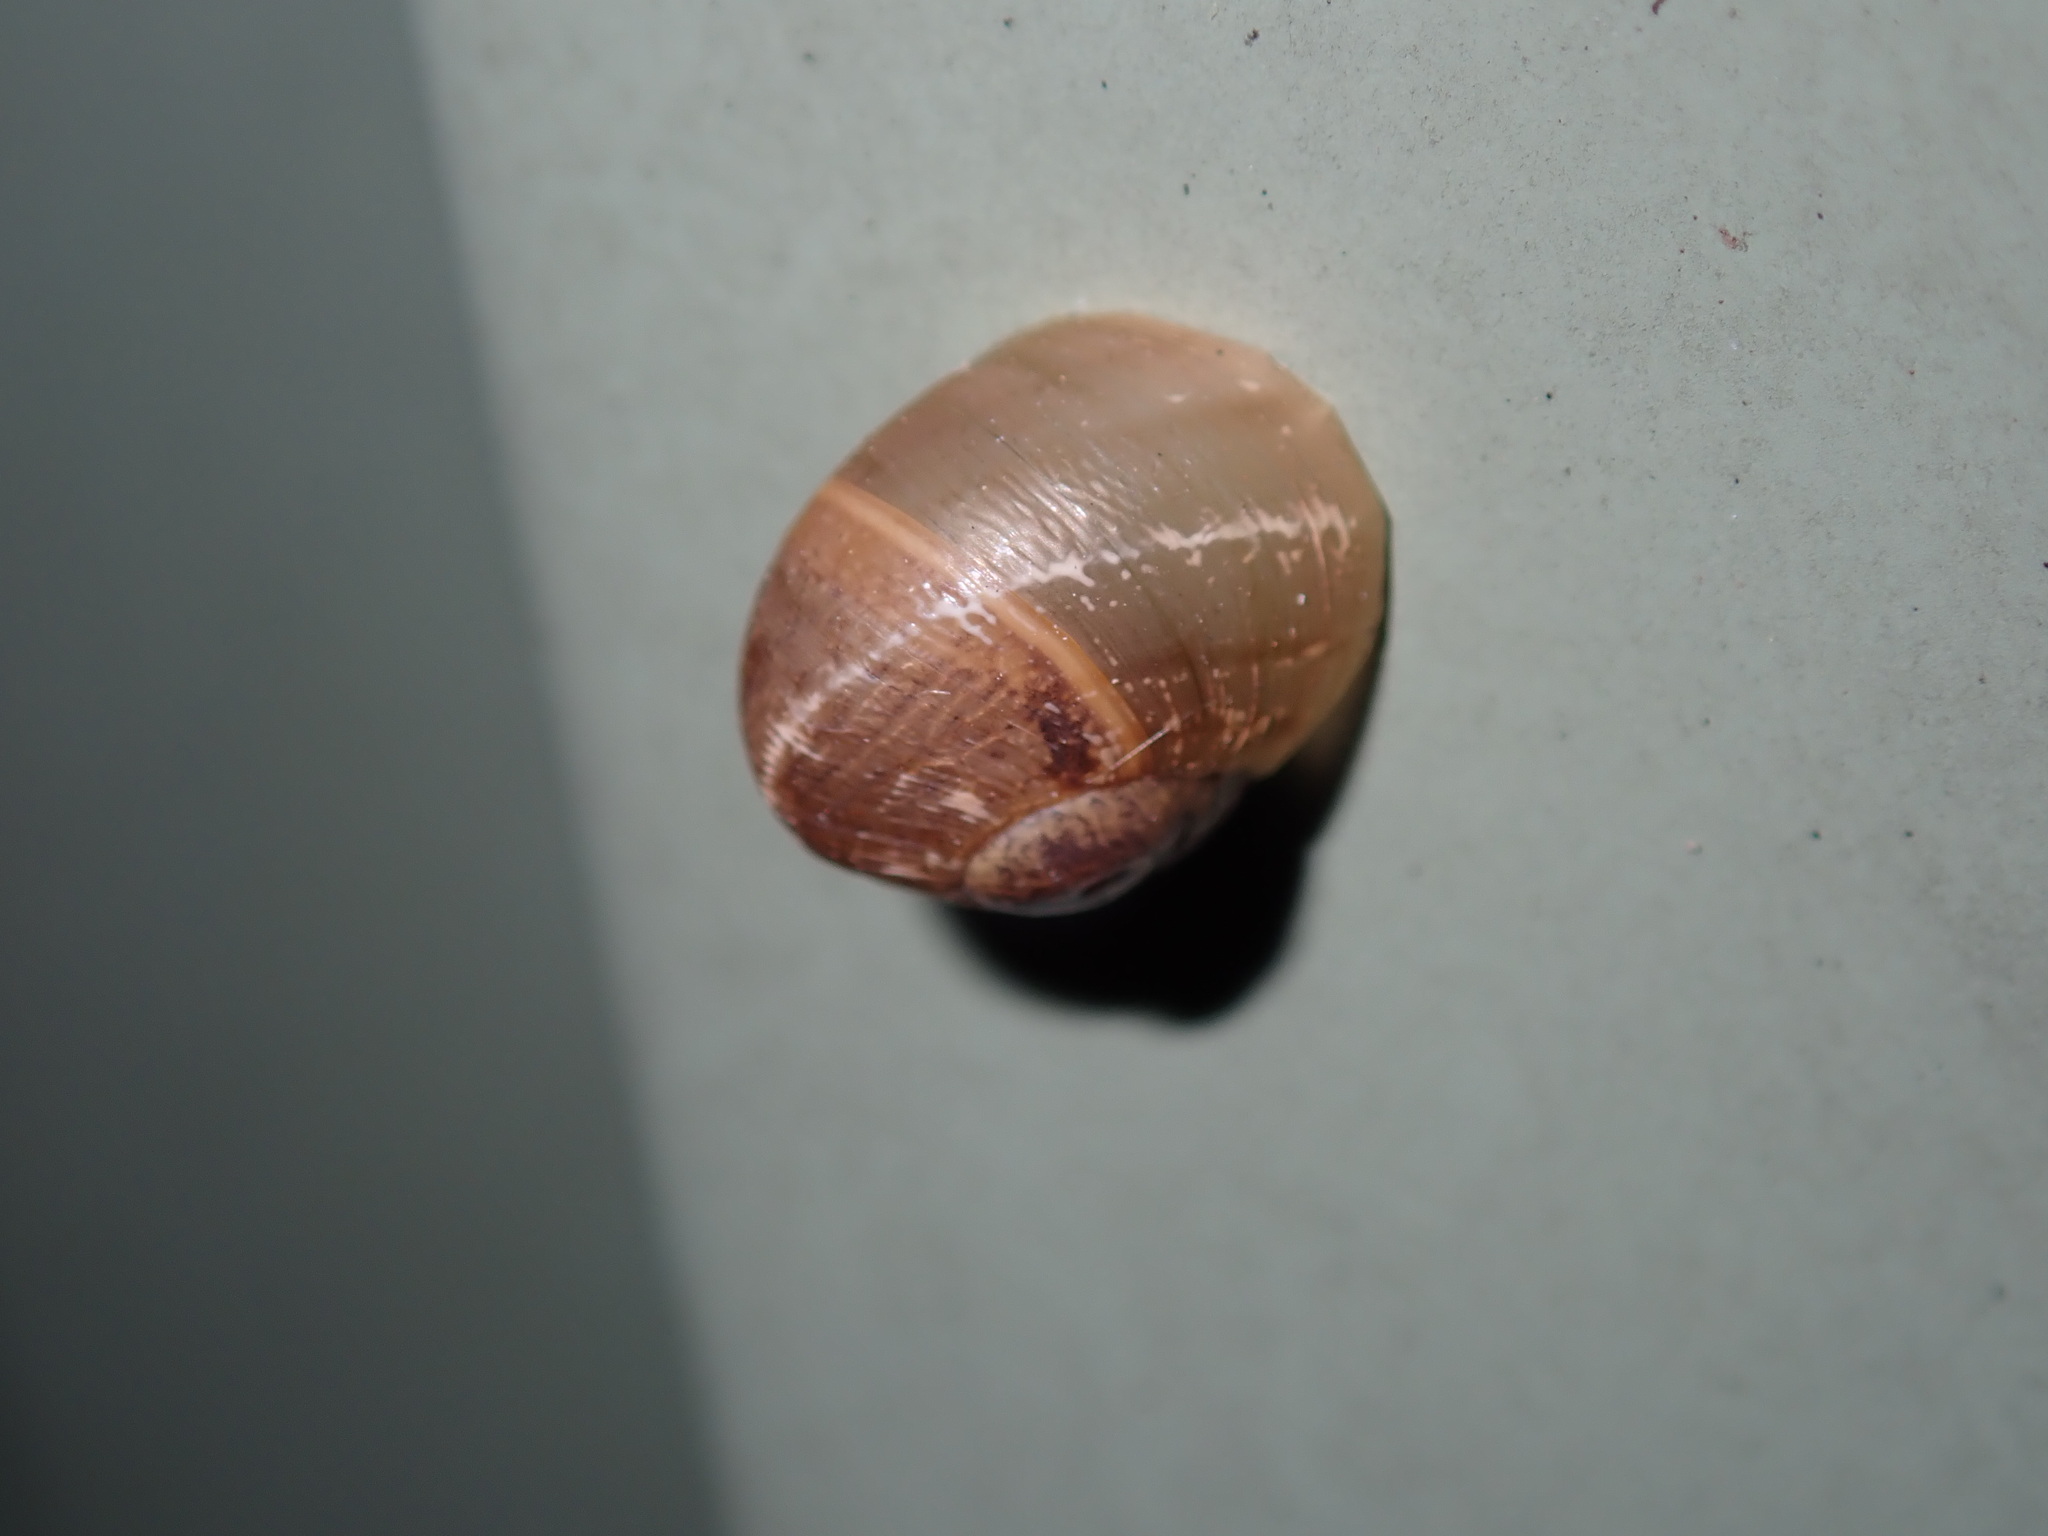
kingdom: Animalia
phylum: Mollusca
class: Gastropoda
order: Stylommatophora
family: Helicidae
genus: Cornu
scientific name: Cornu aspersum
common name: Brown garden snail
